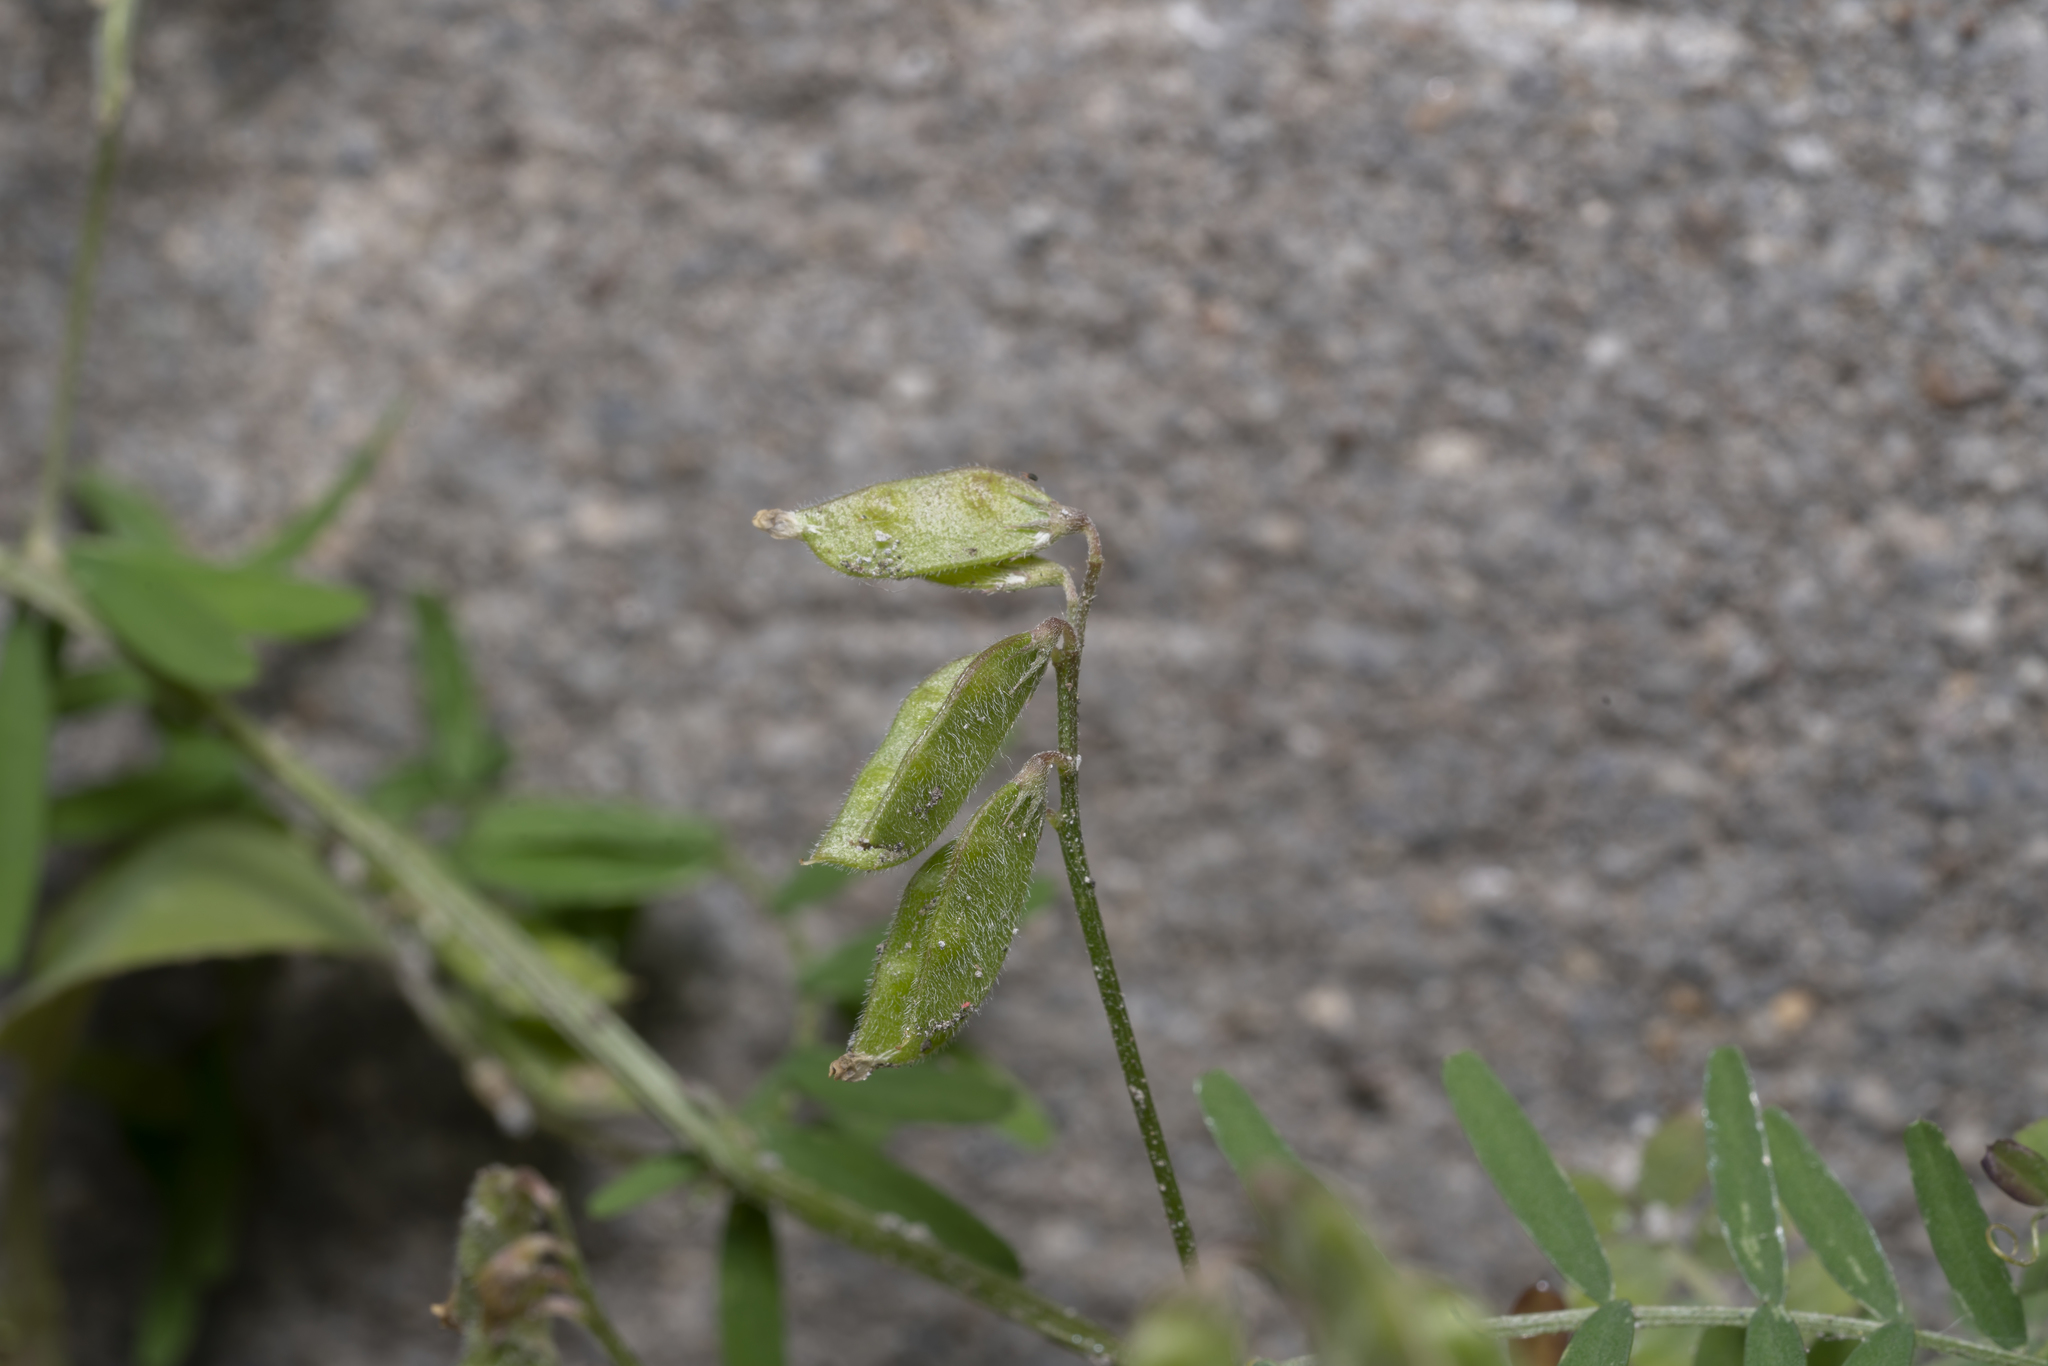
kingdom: Plantae
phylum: Tracheophyta
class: Magnoliopsida
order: Fabales
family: Fabaceae
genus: Vicia
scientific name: Vicia hirsuta
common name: Tiny vetch
